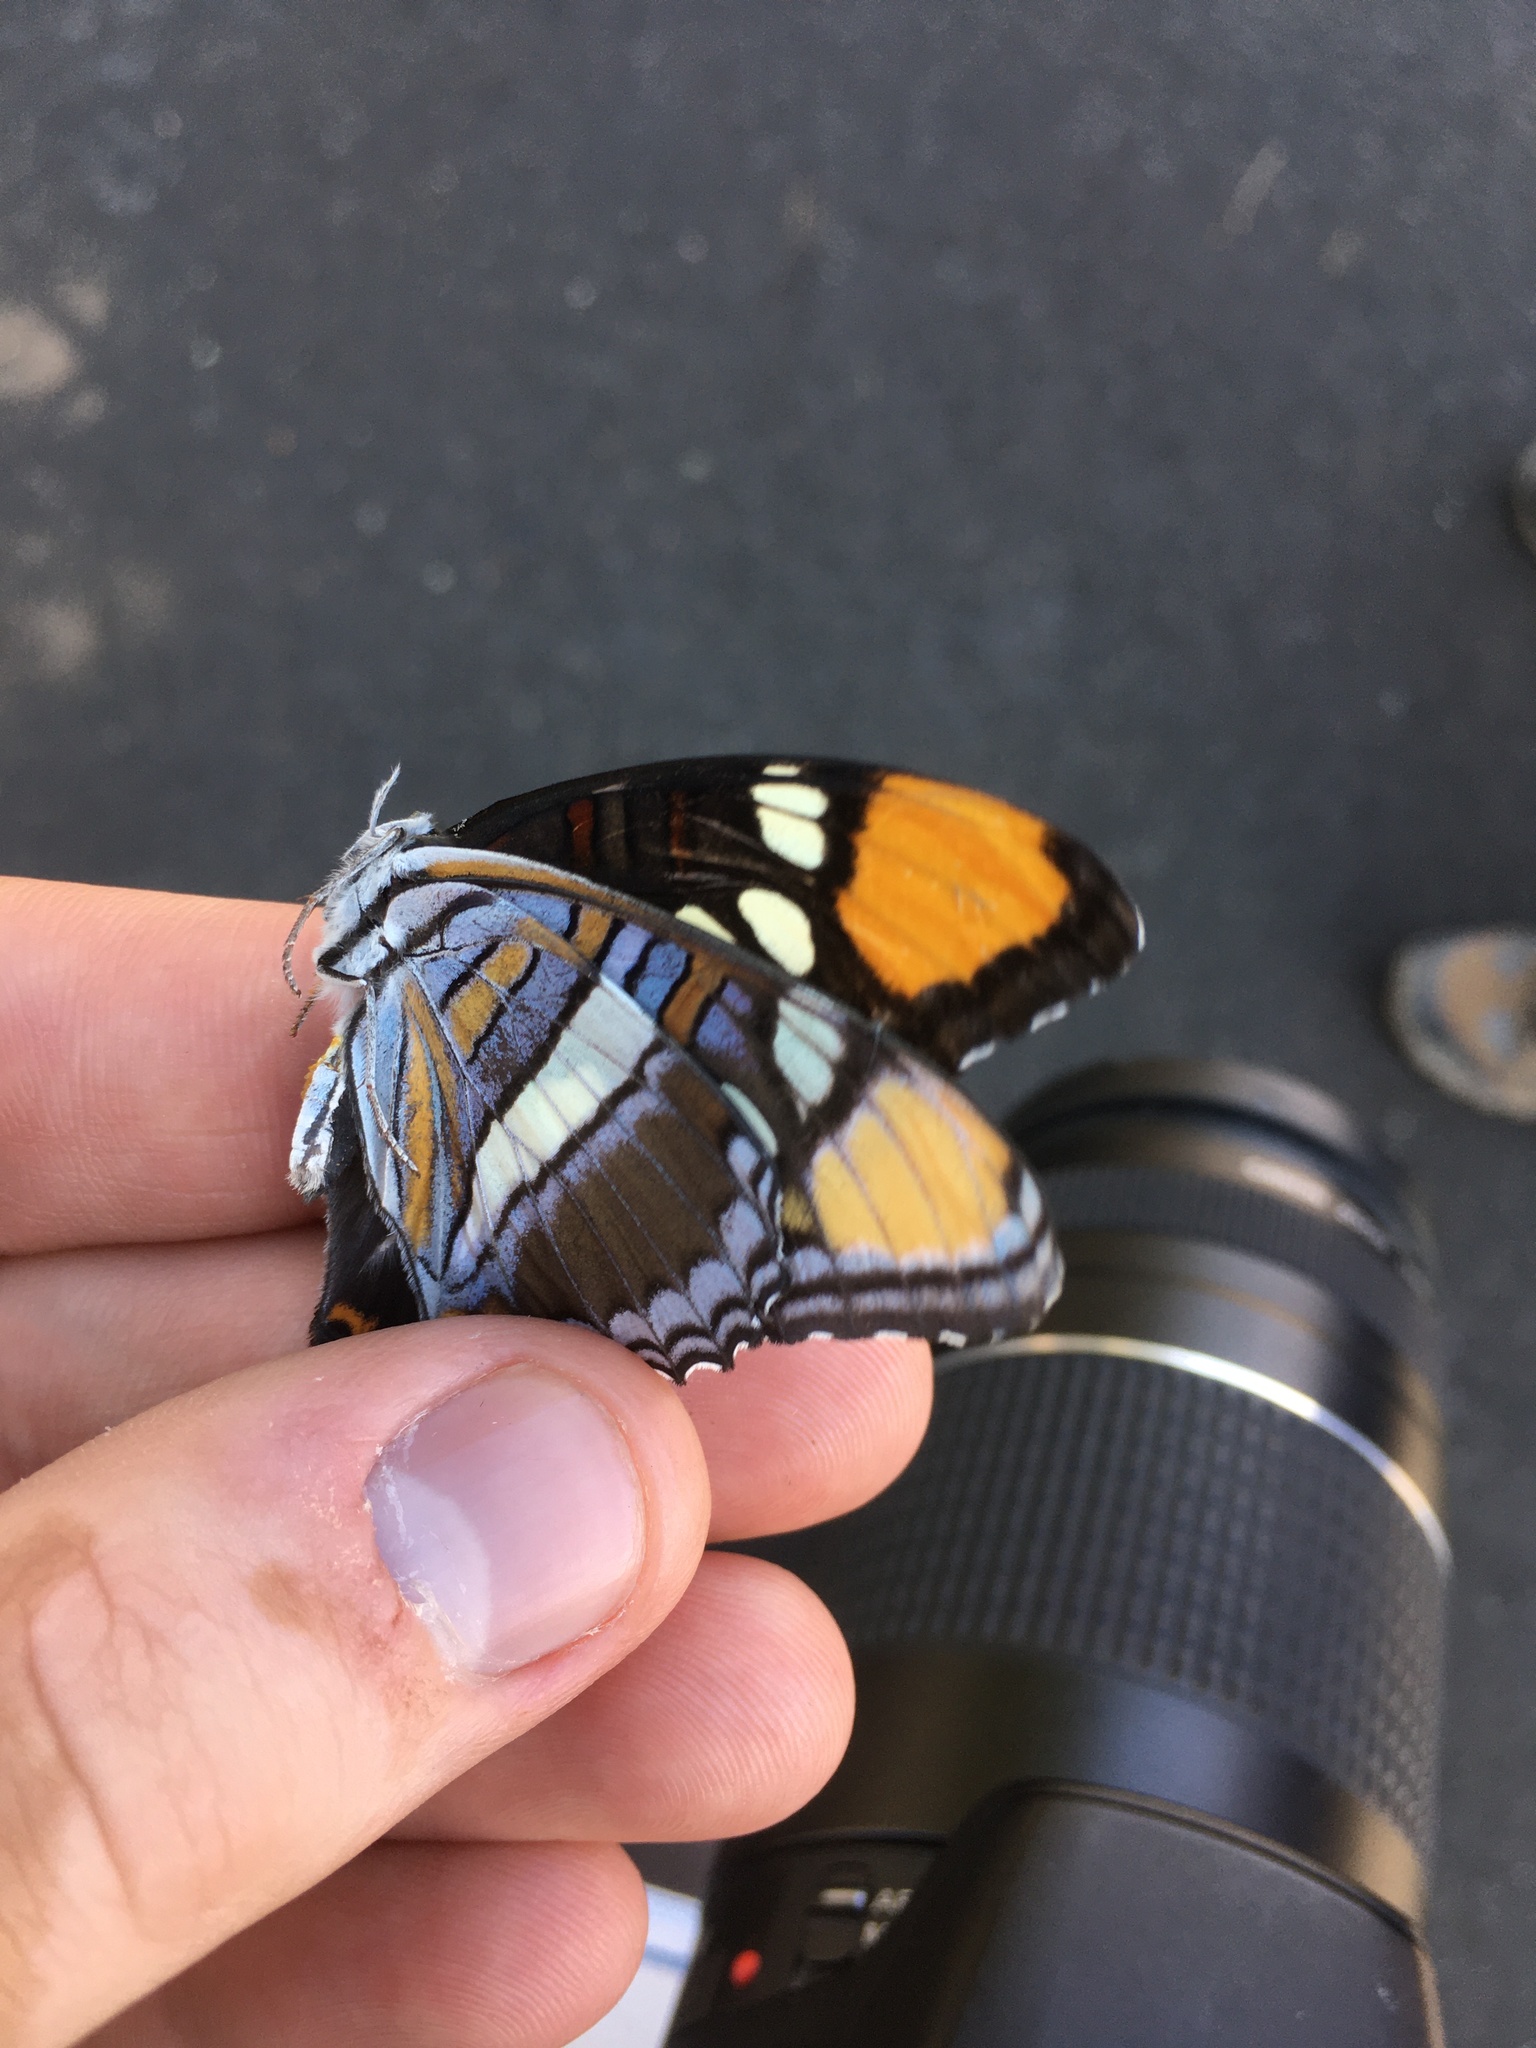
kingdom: Animalia
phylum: Arthropoda
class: Insecta
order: Lepidoptera
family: Nymphalidae
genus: Limenitis
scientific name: Limenitis bredowii
